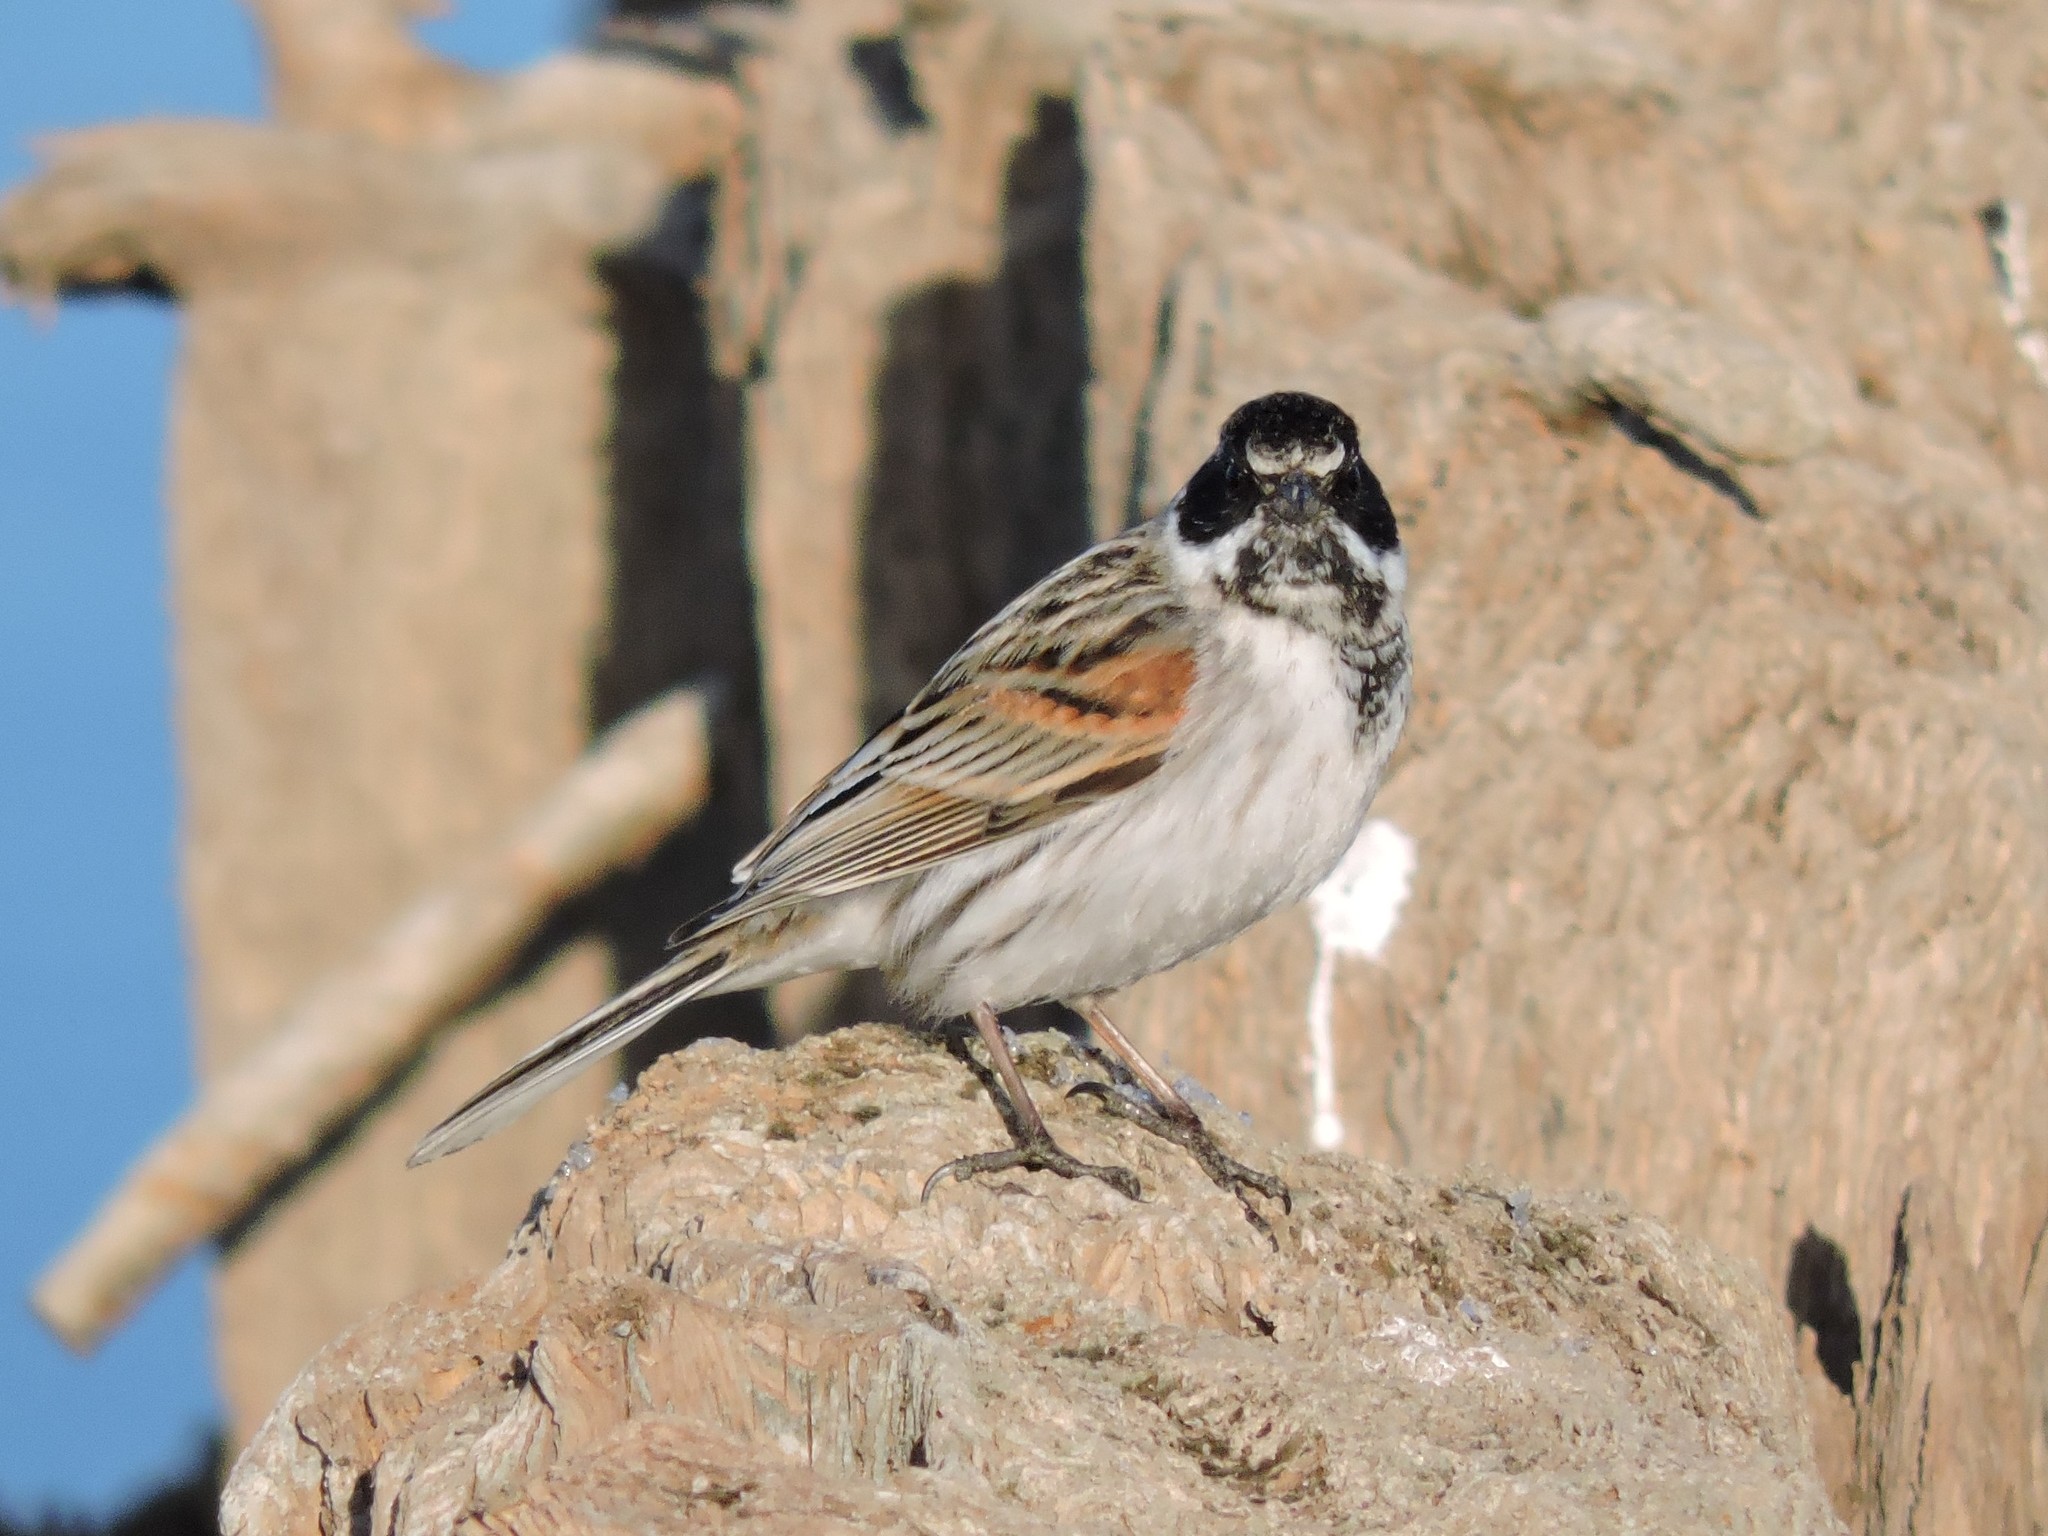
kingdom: Animalia
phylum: Chordata
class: Aves
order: Passeriformes
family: Emberizidae
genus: Emberiza
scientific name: Emberiza schoeniclus
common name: Reed bunting
